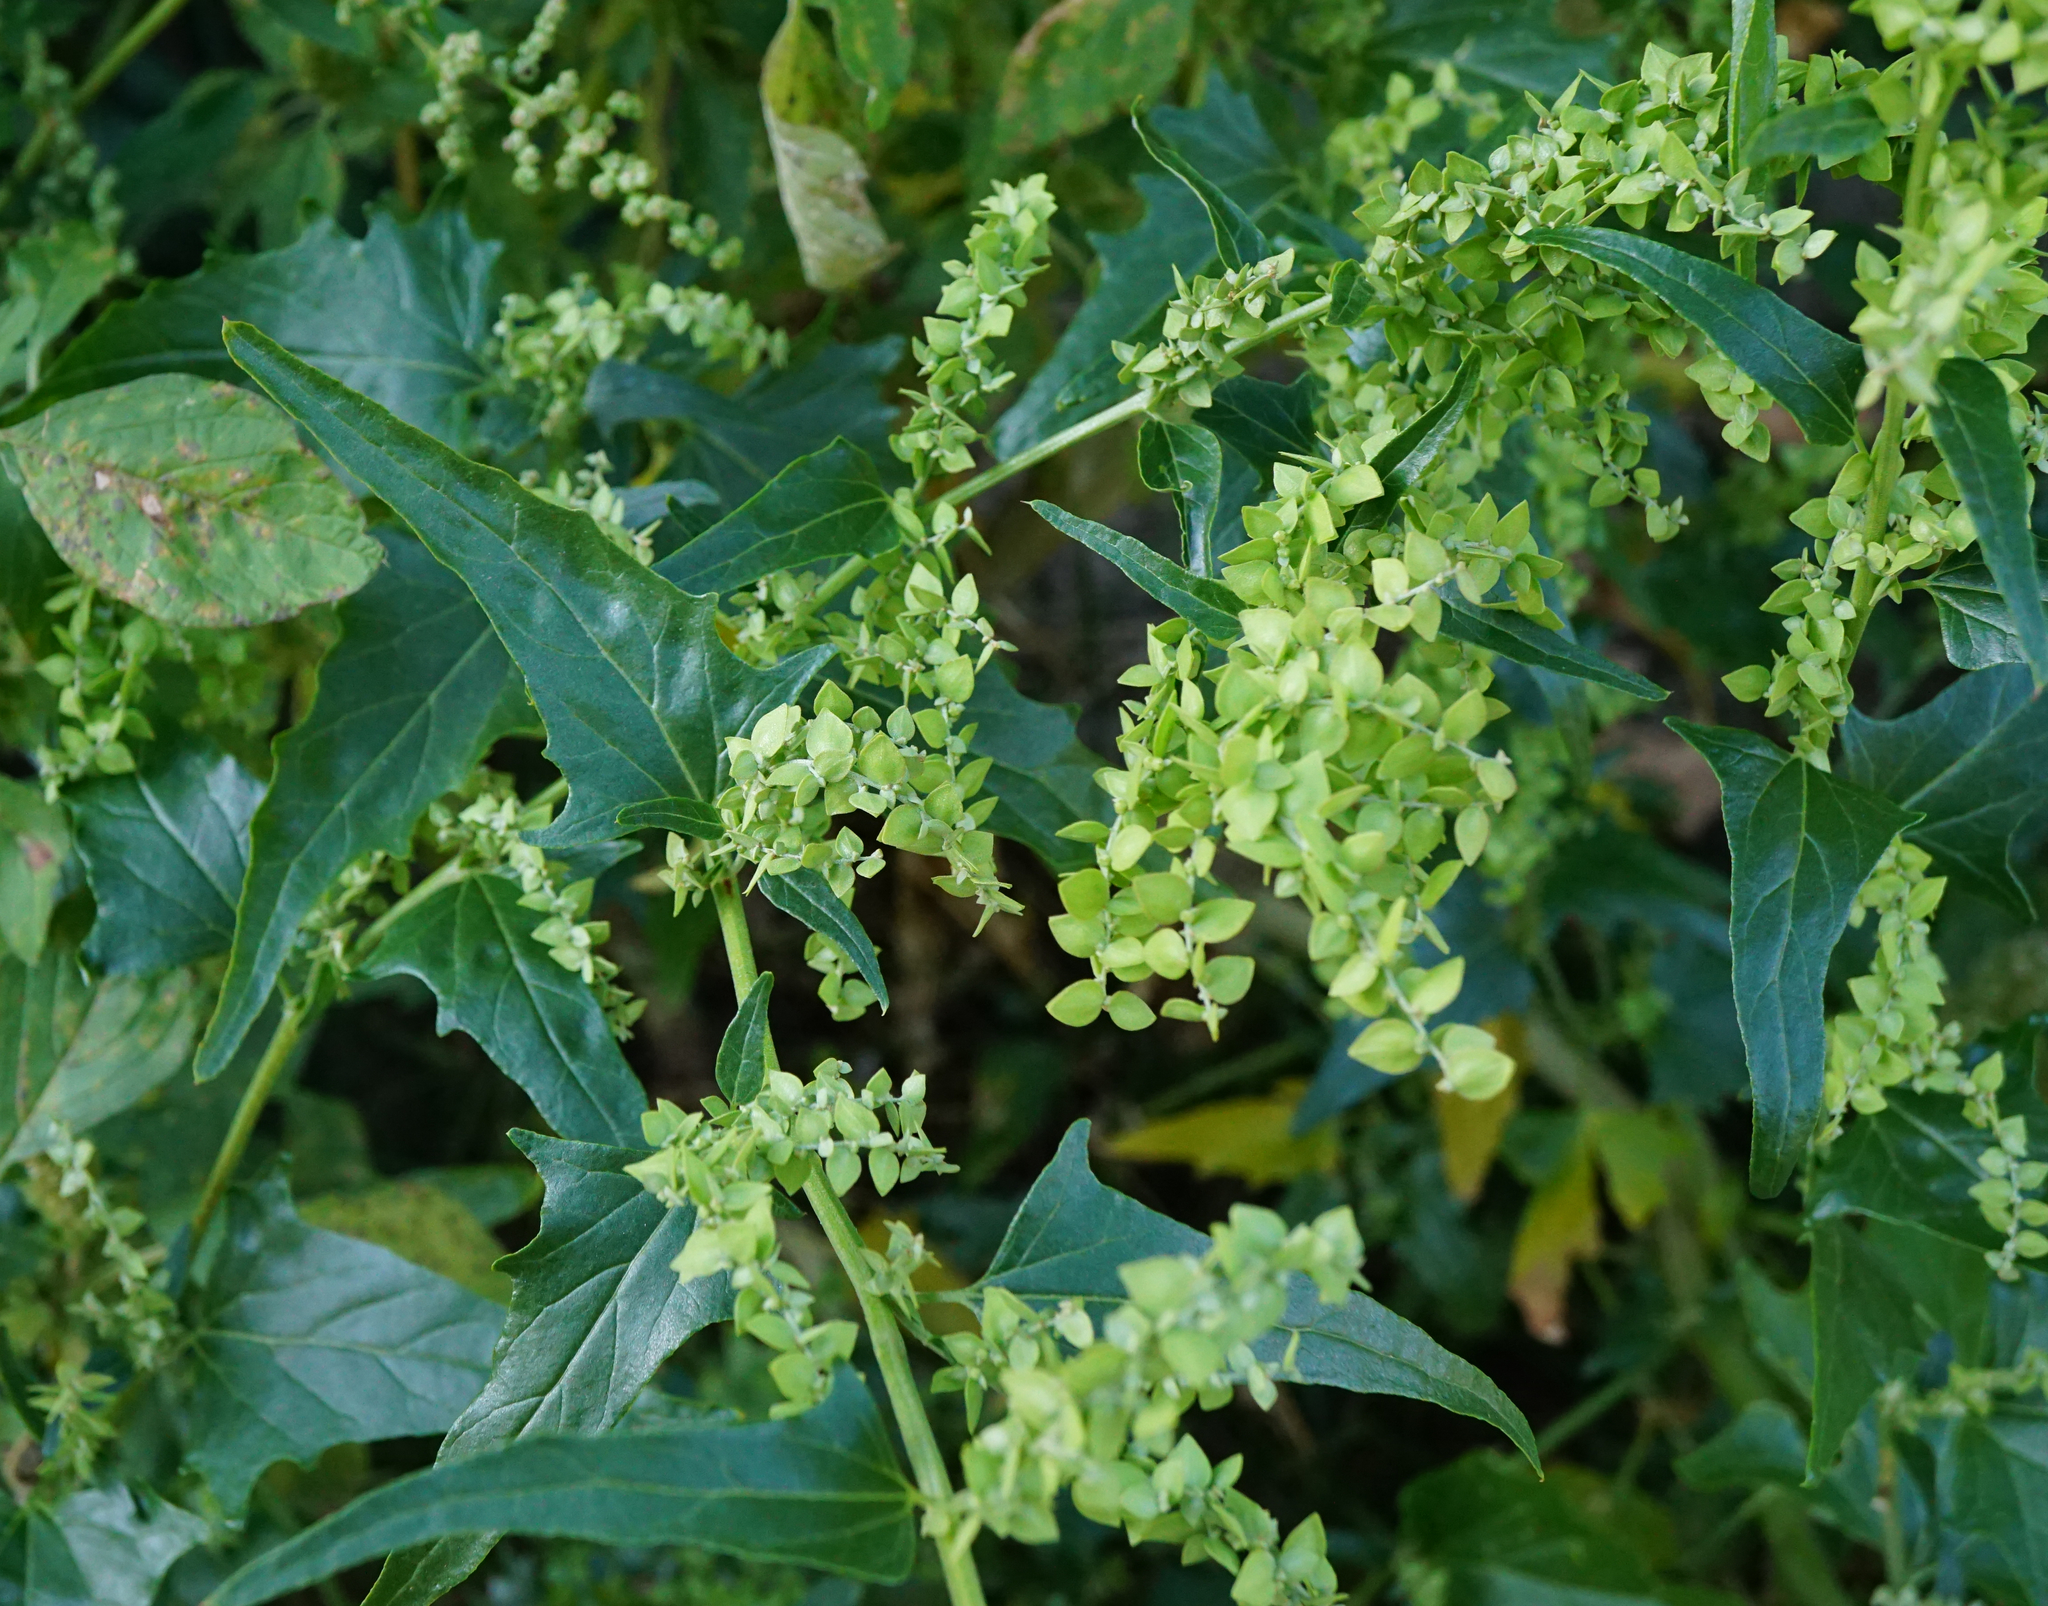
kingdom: Plantae
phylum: Tracheophyta
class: Magnoliopsida
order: Caryophyllales
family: Amaranthaceae
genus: Atriplex
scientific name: Atriplex sagittata
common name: Purple orache
